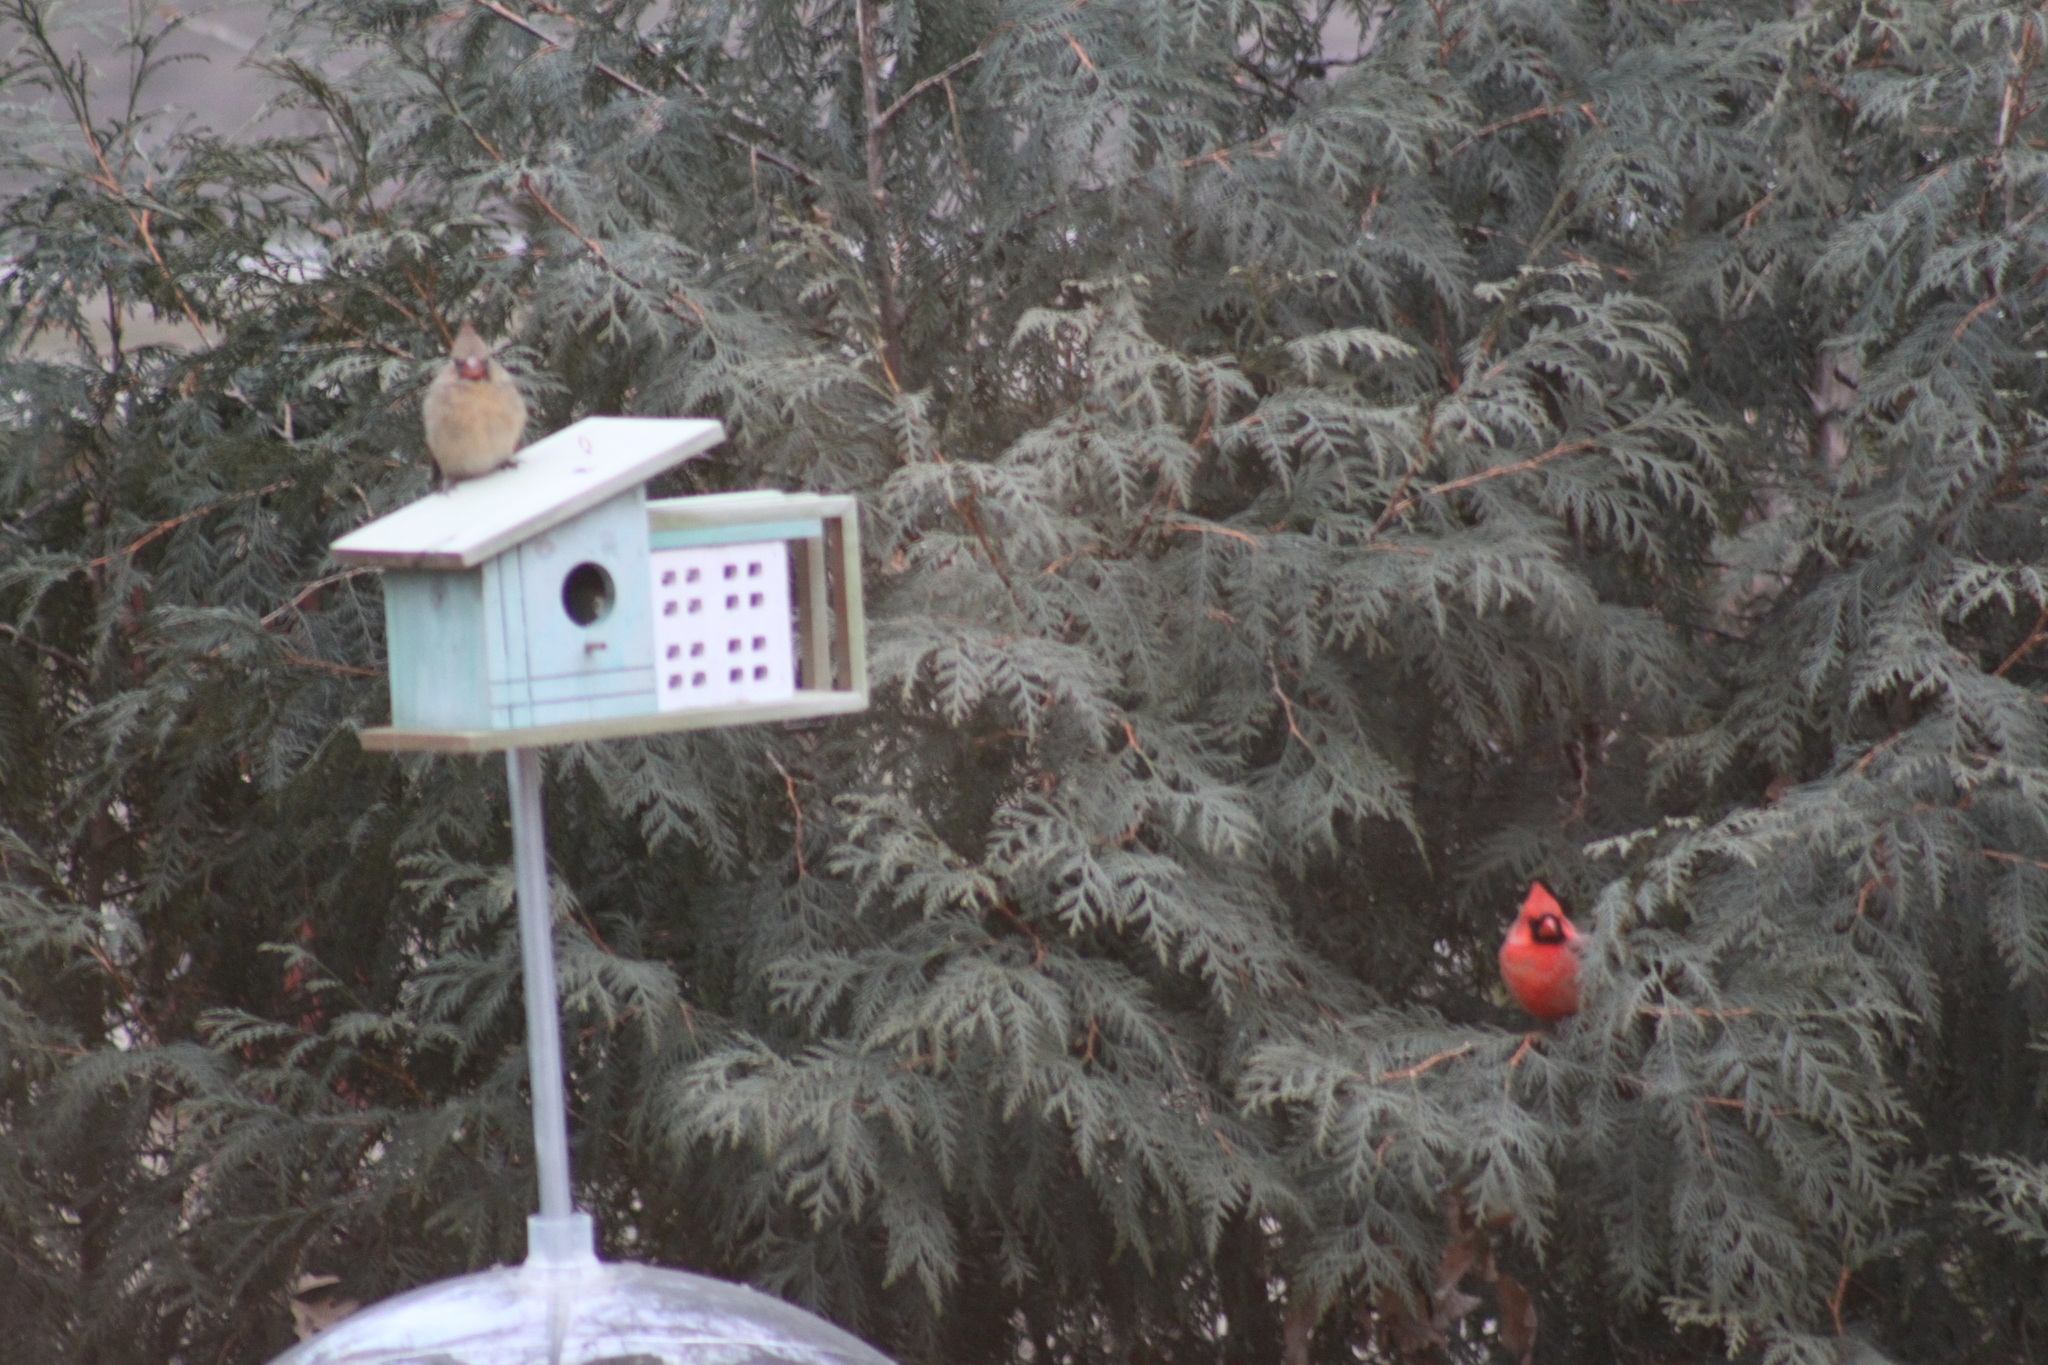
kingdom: Animalia
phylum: Chordata
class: Aves
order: Passeriformes
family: Cardinalidae
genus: Cardinalis
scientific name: Cardinalis cardinalis
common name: Northern cardinal
